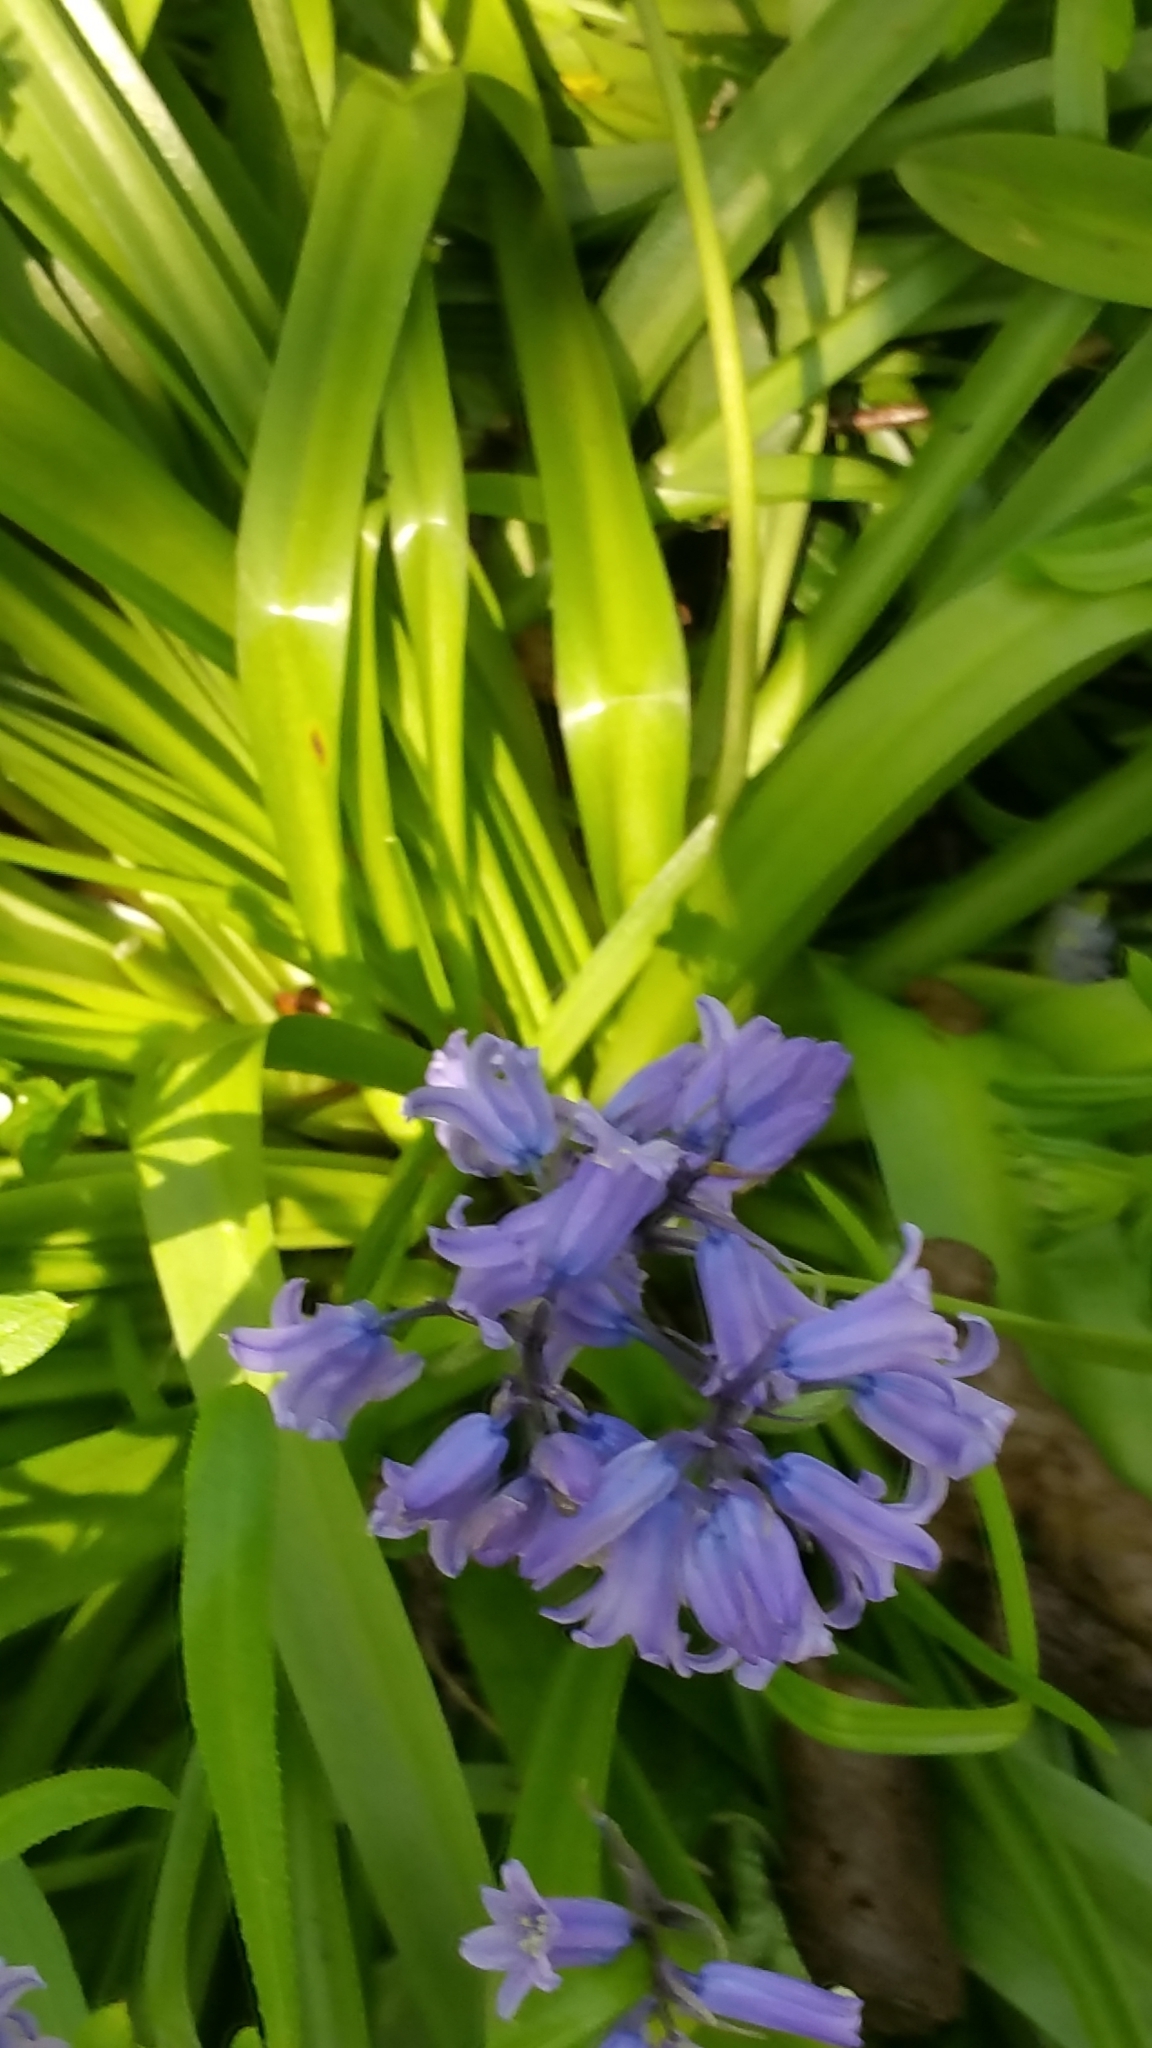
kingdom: Plantae
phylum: Tracheophyta
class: Liliopsida
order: Asparagales
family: Asparagaceae
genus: Hyacinthoides
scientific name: Hyacinthoides hispanica
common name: Spanish bluebell
